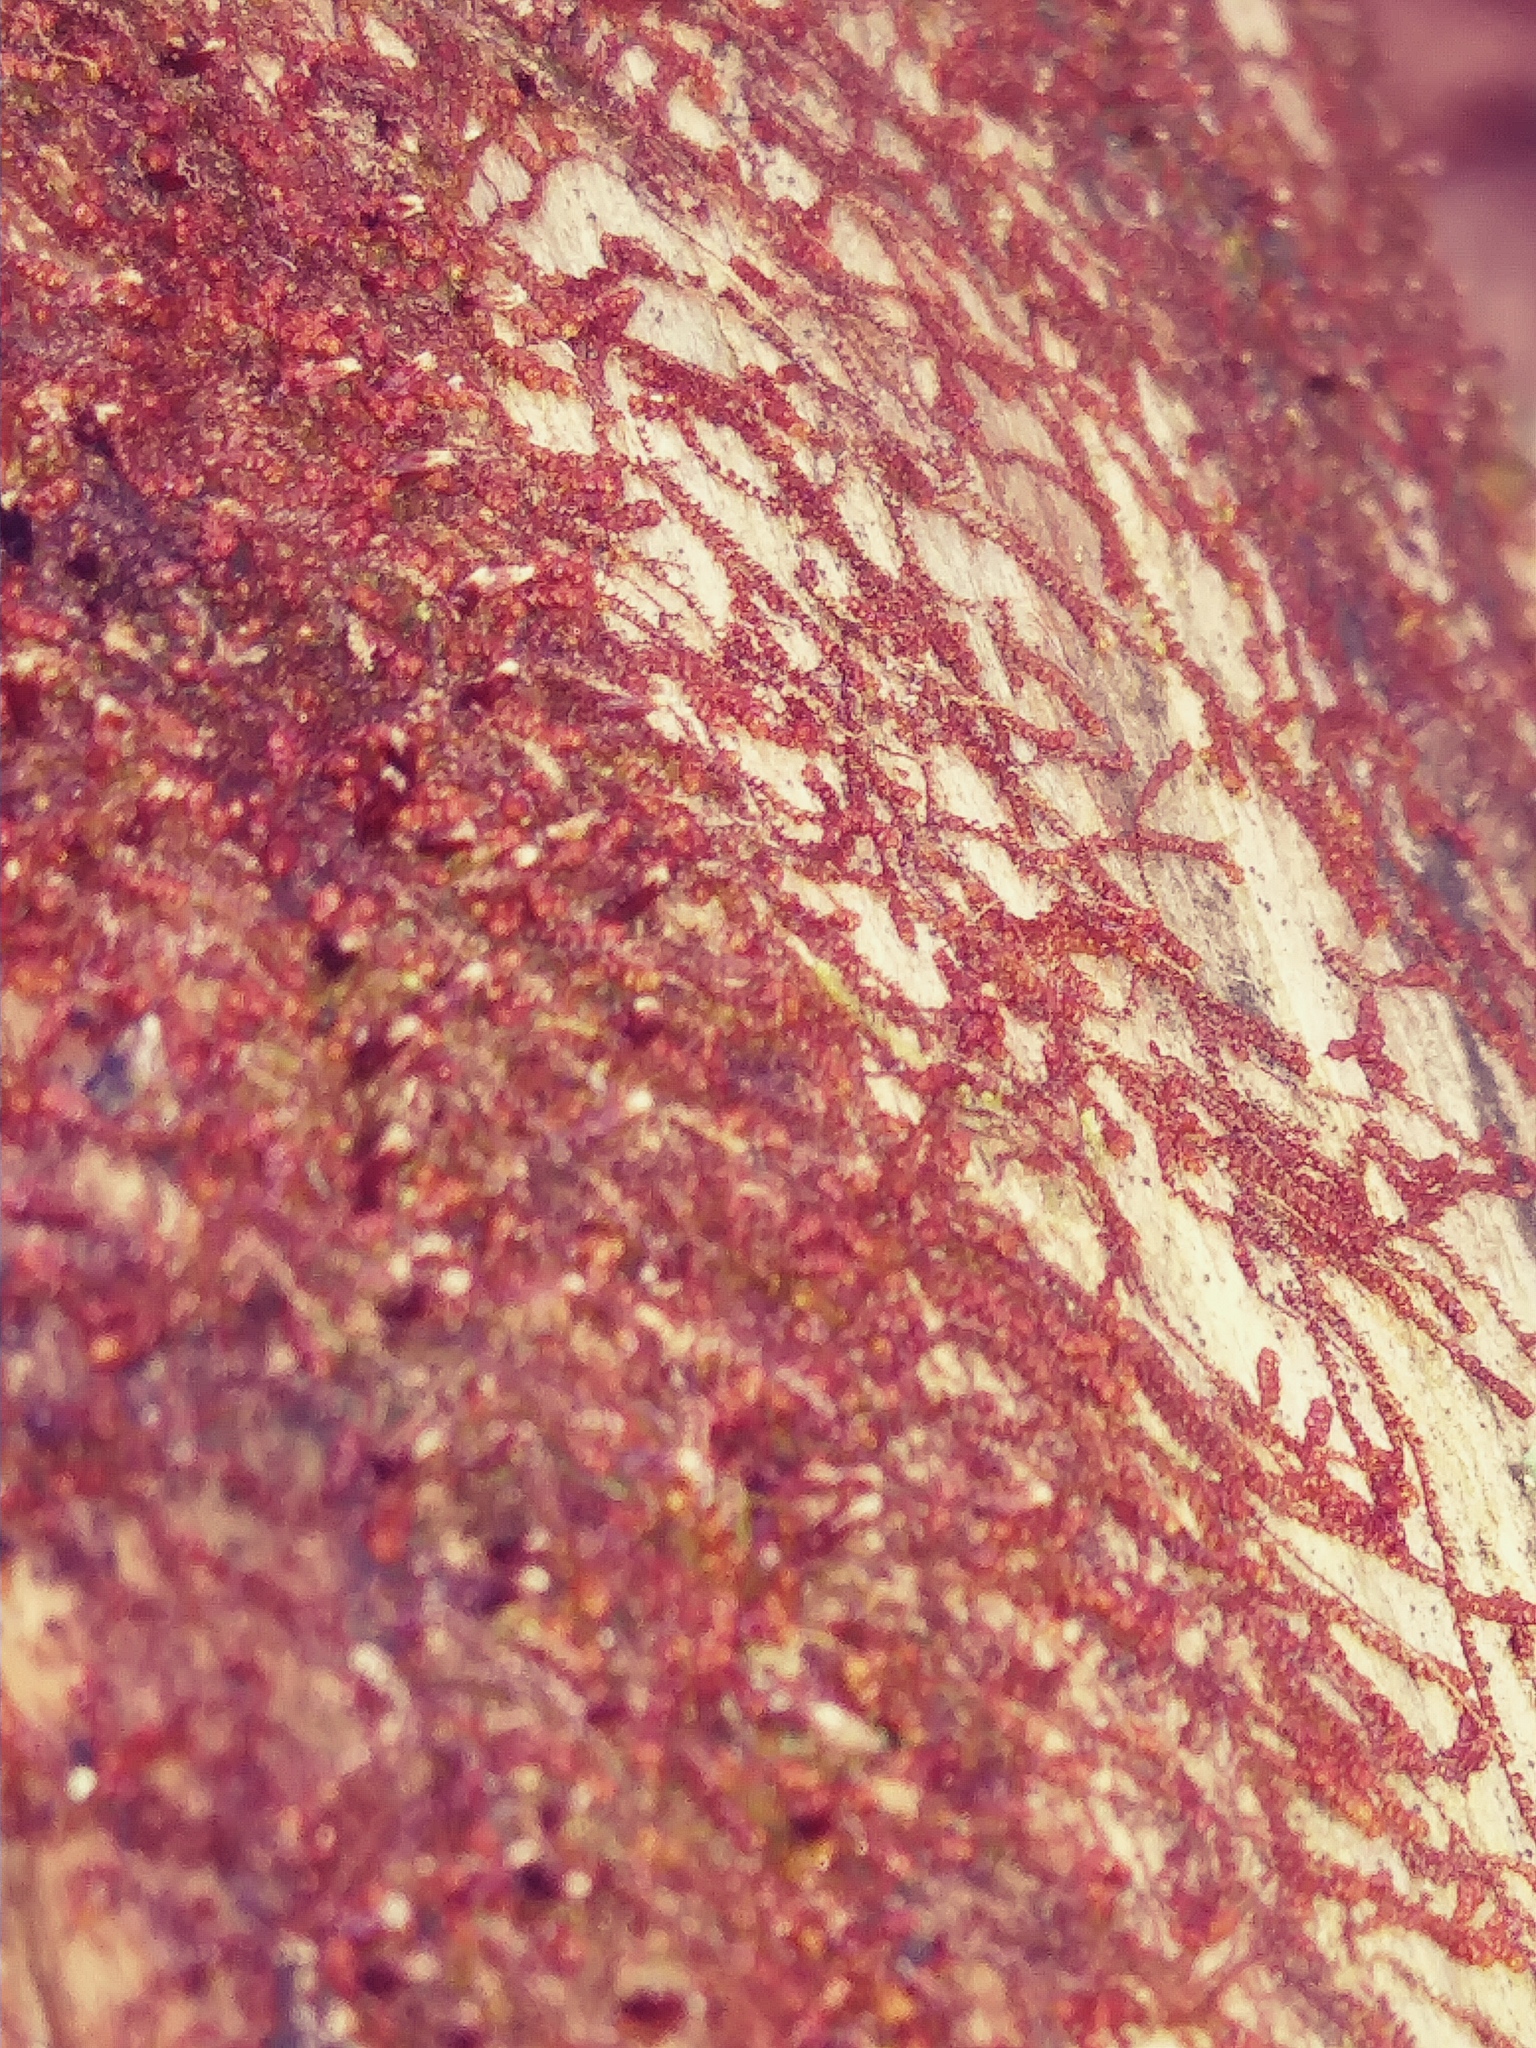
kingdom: Plantae
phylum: Marchantiophyta
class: Jungermanniopsida
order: Jungermanniales
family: Cephaloziaceae
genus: Nowellia
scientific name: Nowellia curvifolia
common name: Wood rustwort
